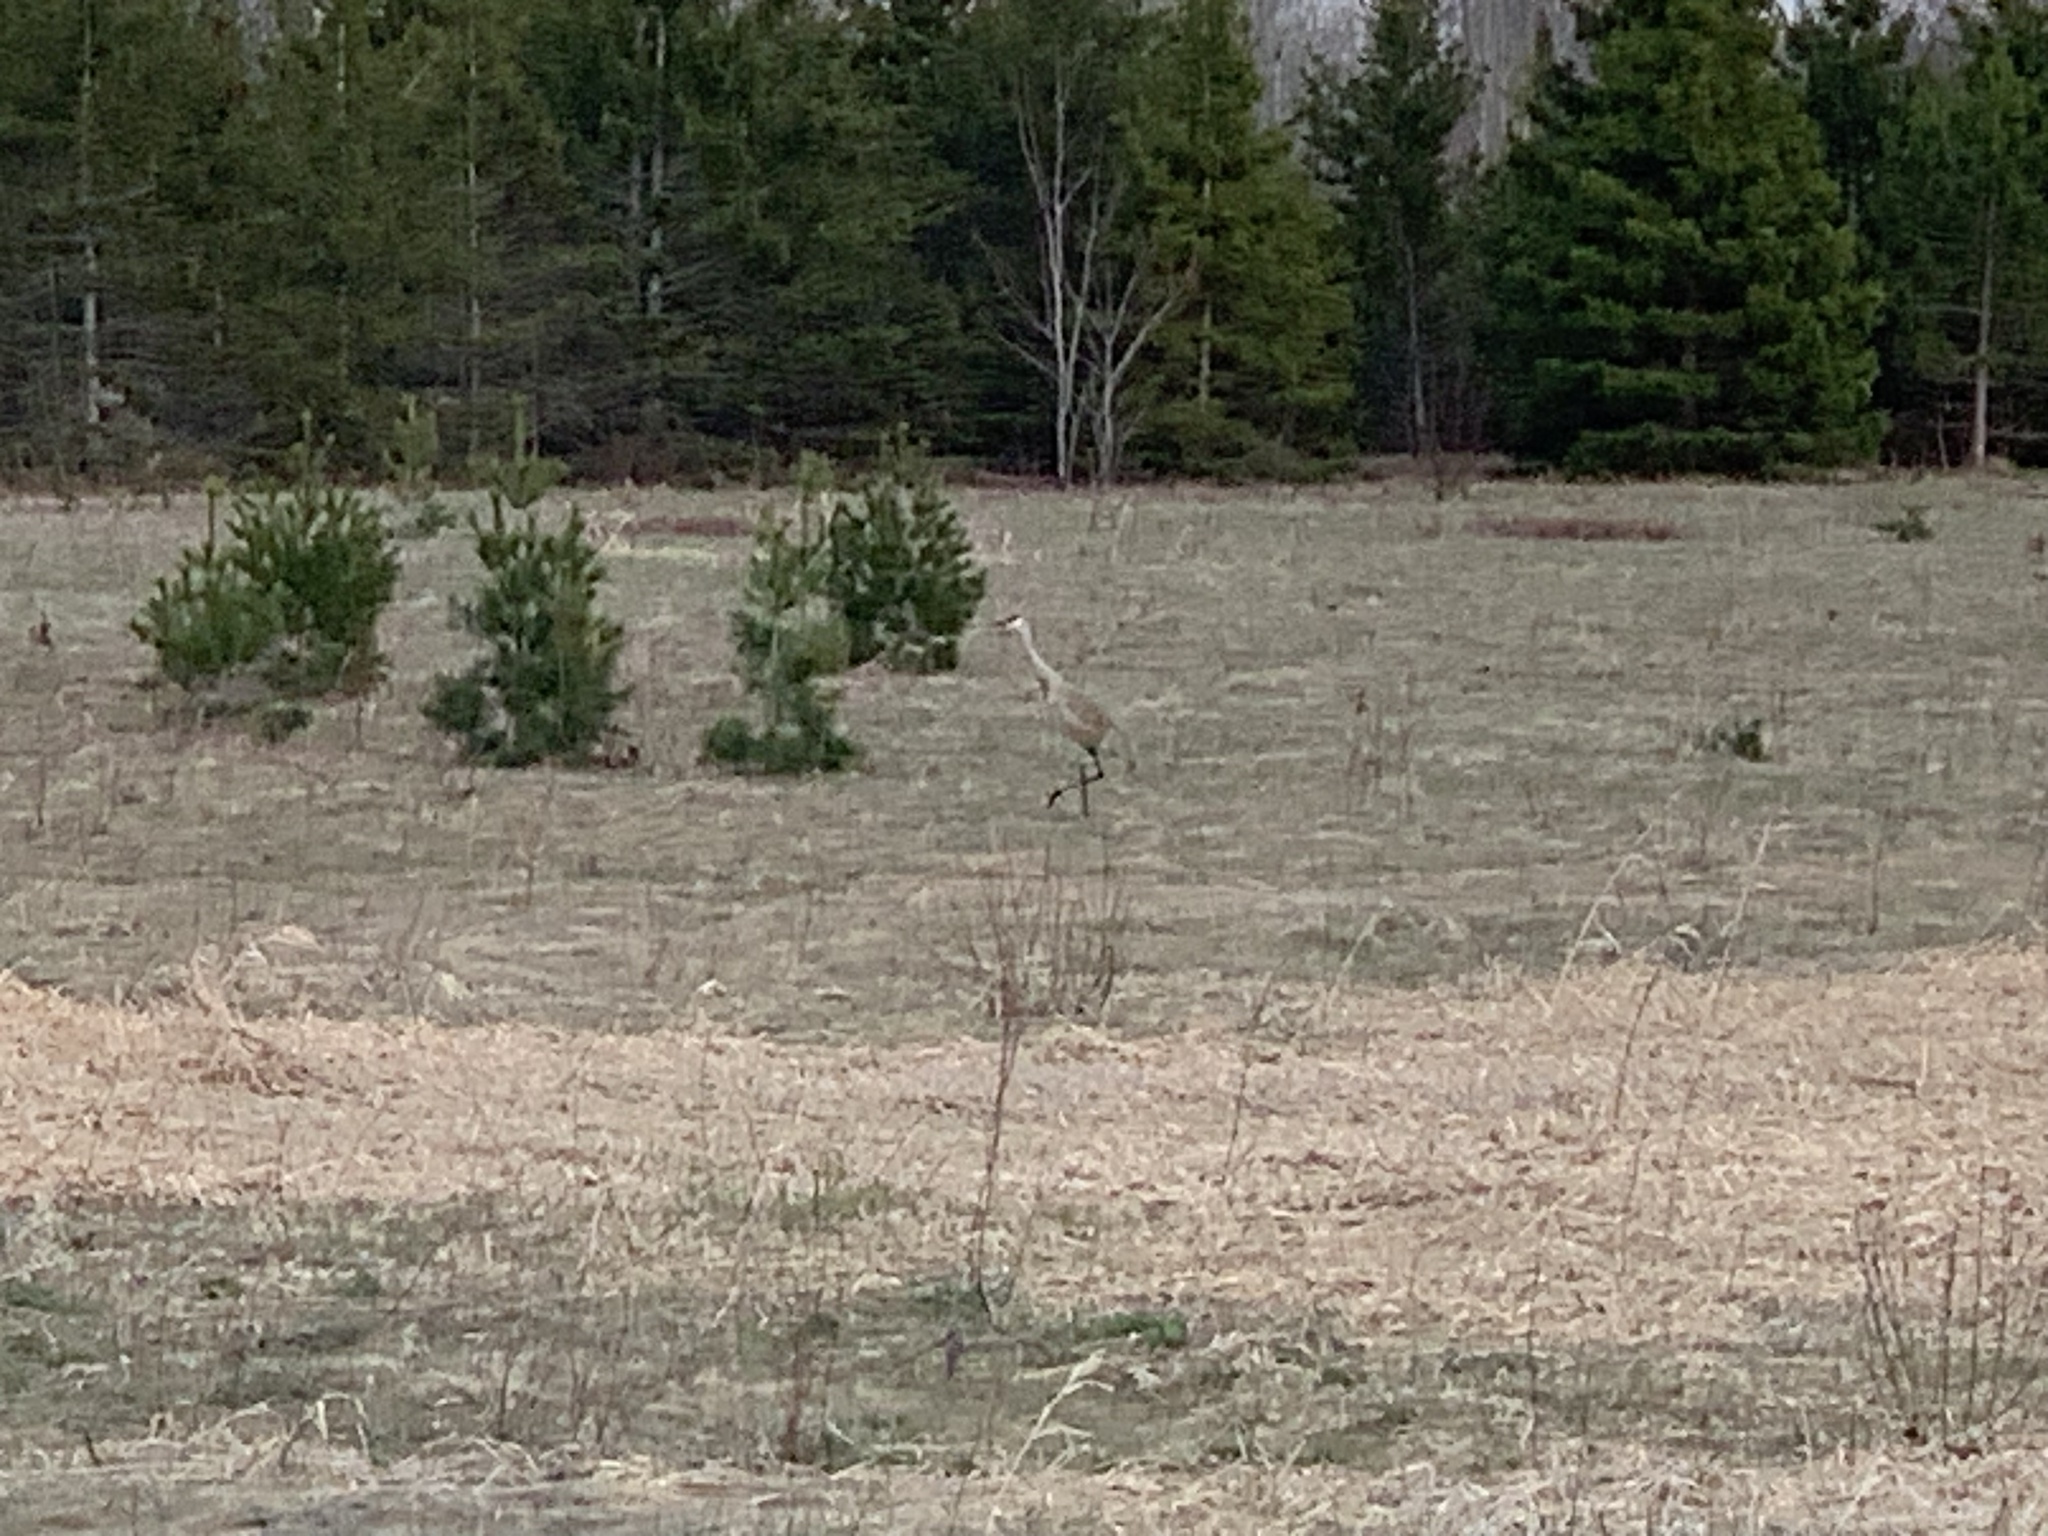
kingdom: Animalia
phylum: Chordata
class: Aves
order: Gruiformes
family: Gruidae
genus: Grus
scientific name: Grus canadensis
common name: Sandhill crane
